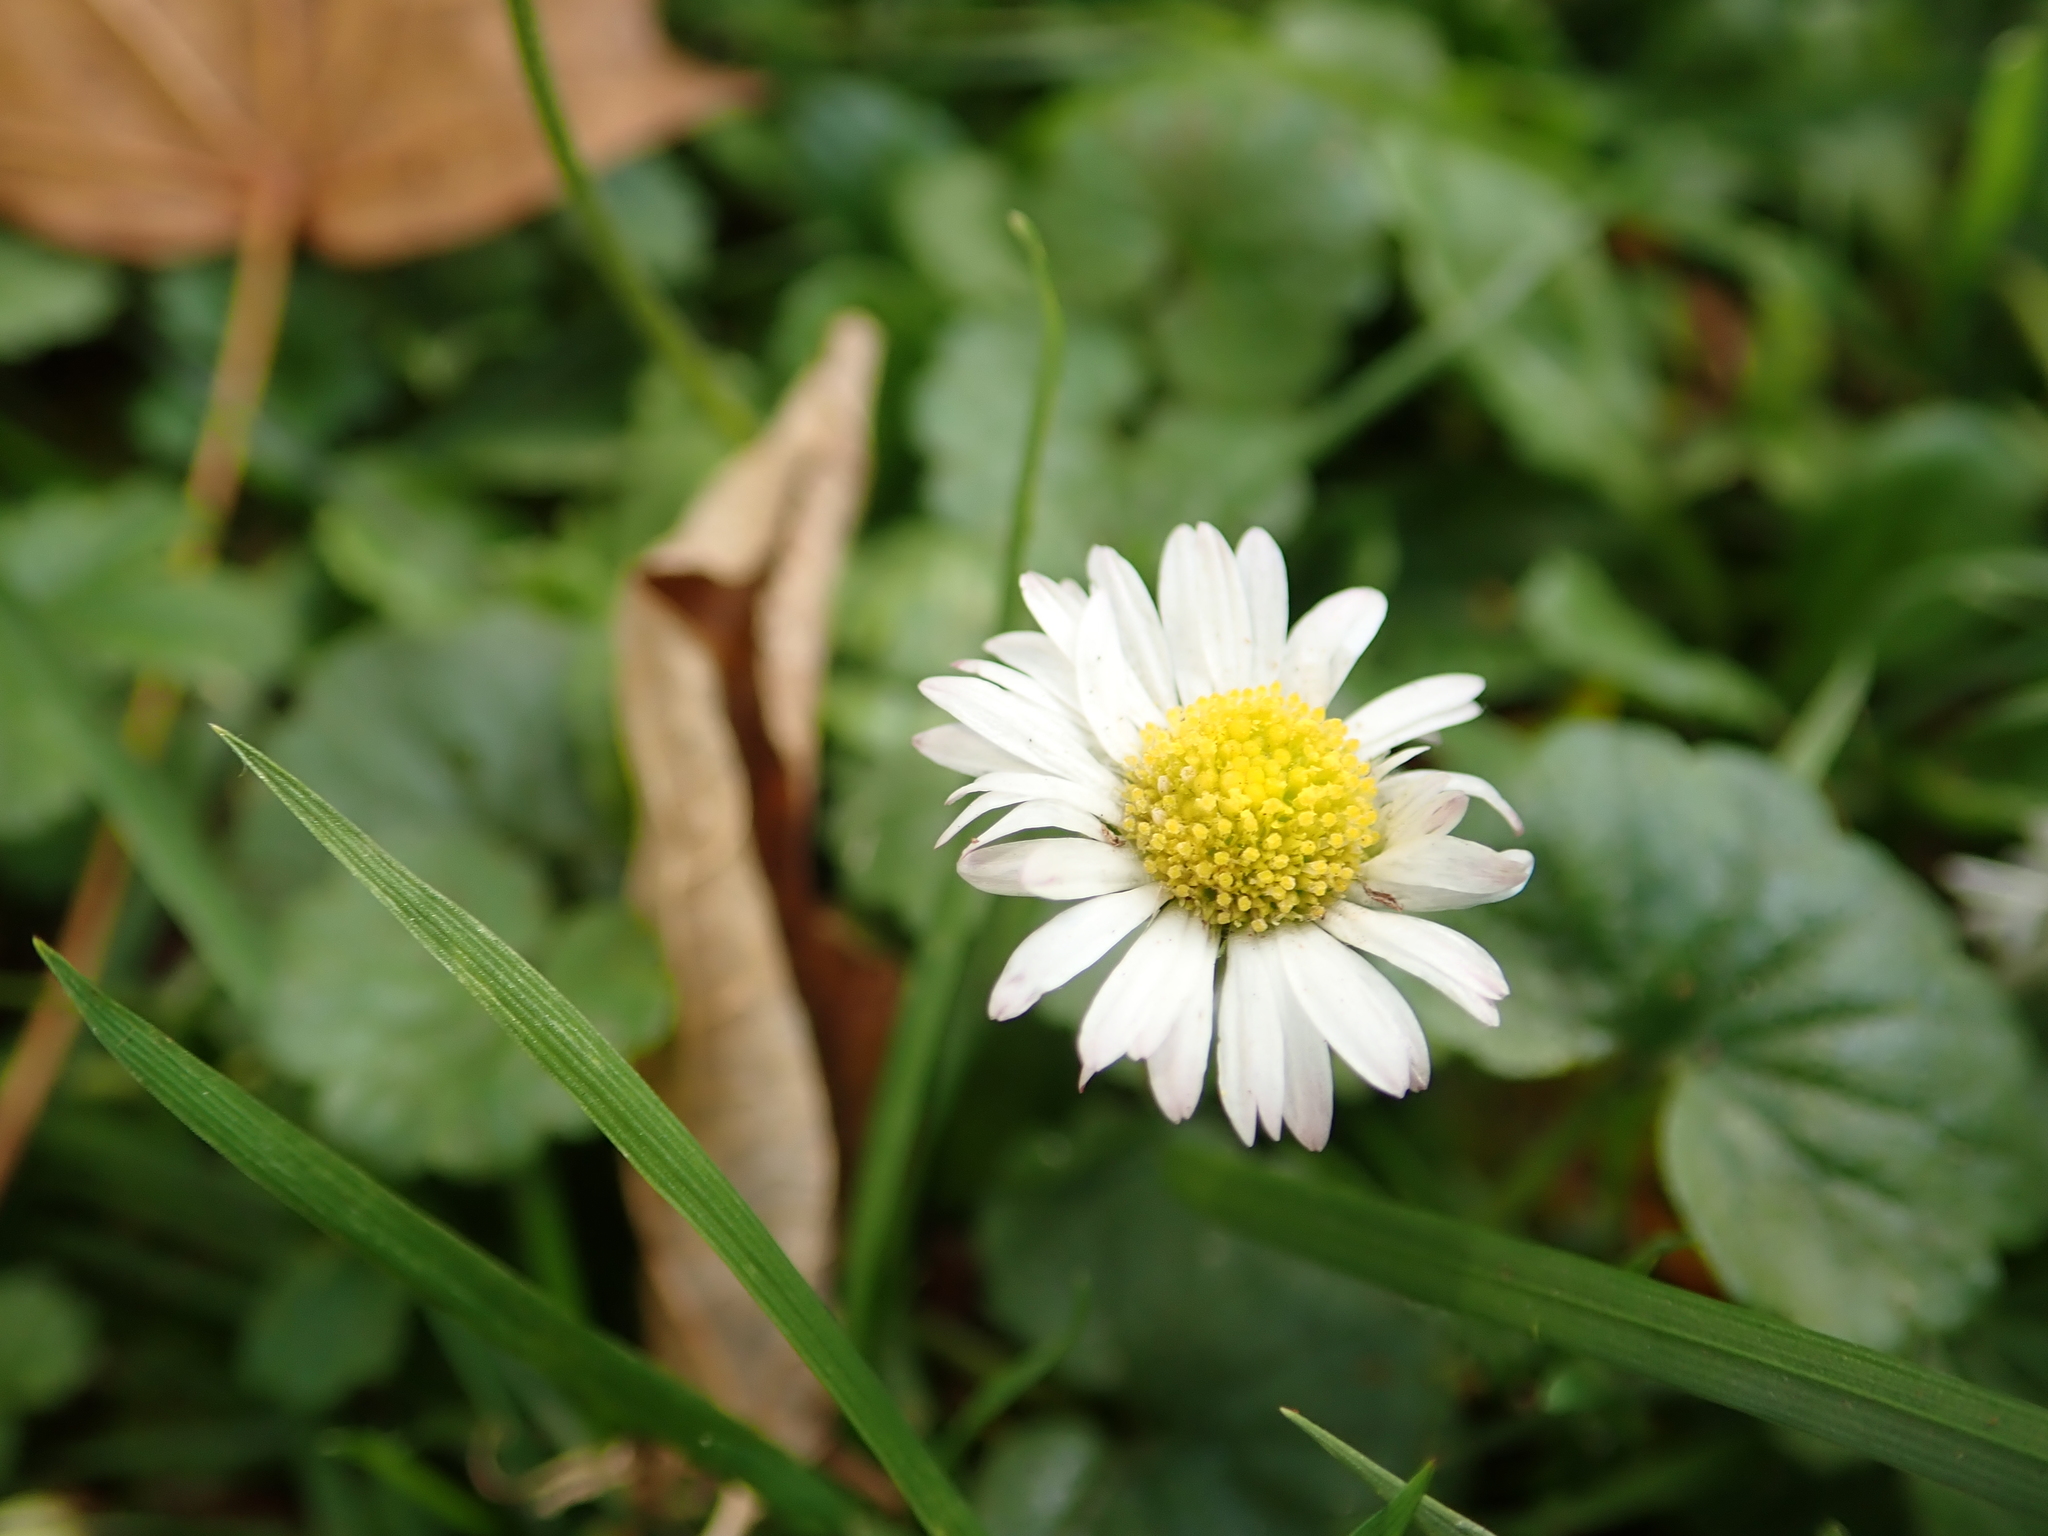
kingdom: Plantae
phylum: Tracheophyta
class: Magnoliopsida
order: Asterales
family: Asteraceae
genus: Bellis
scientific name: Bellis perennis
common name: Lawndaisy
